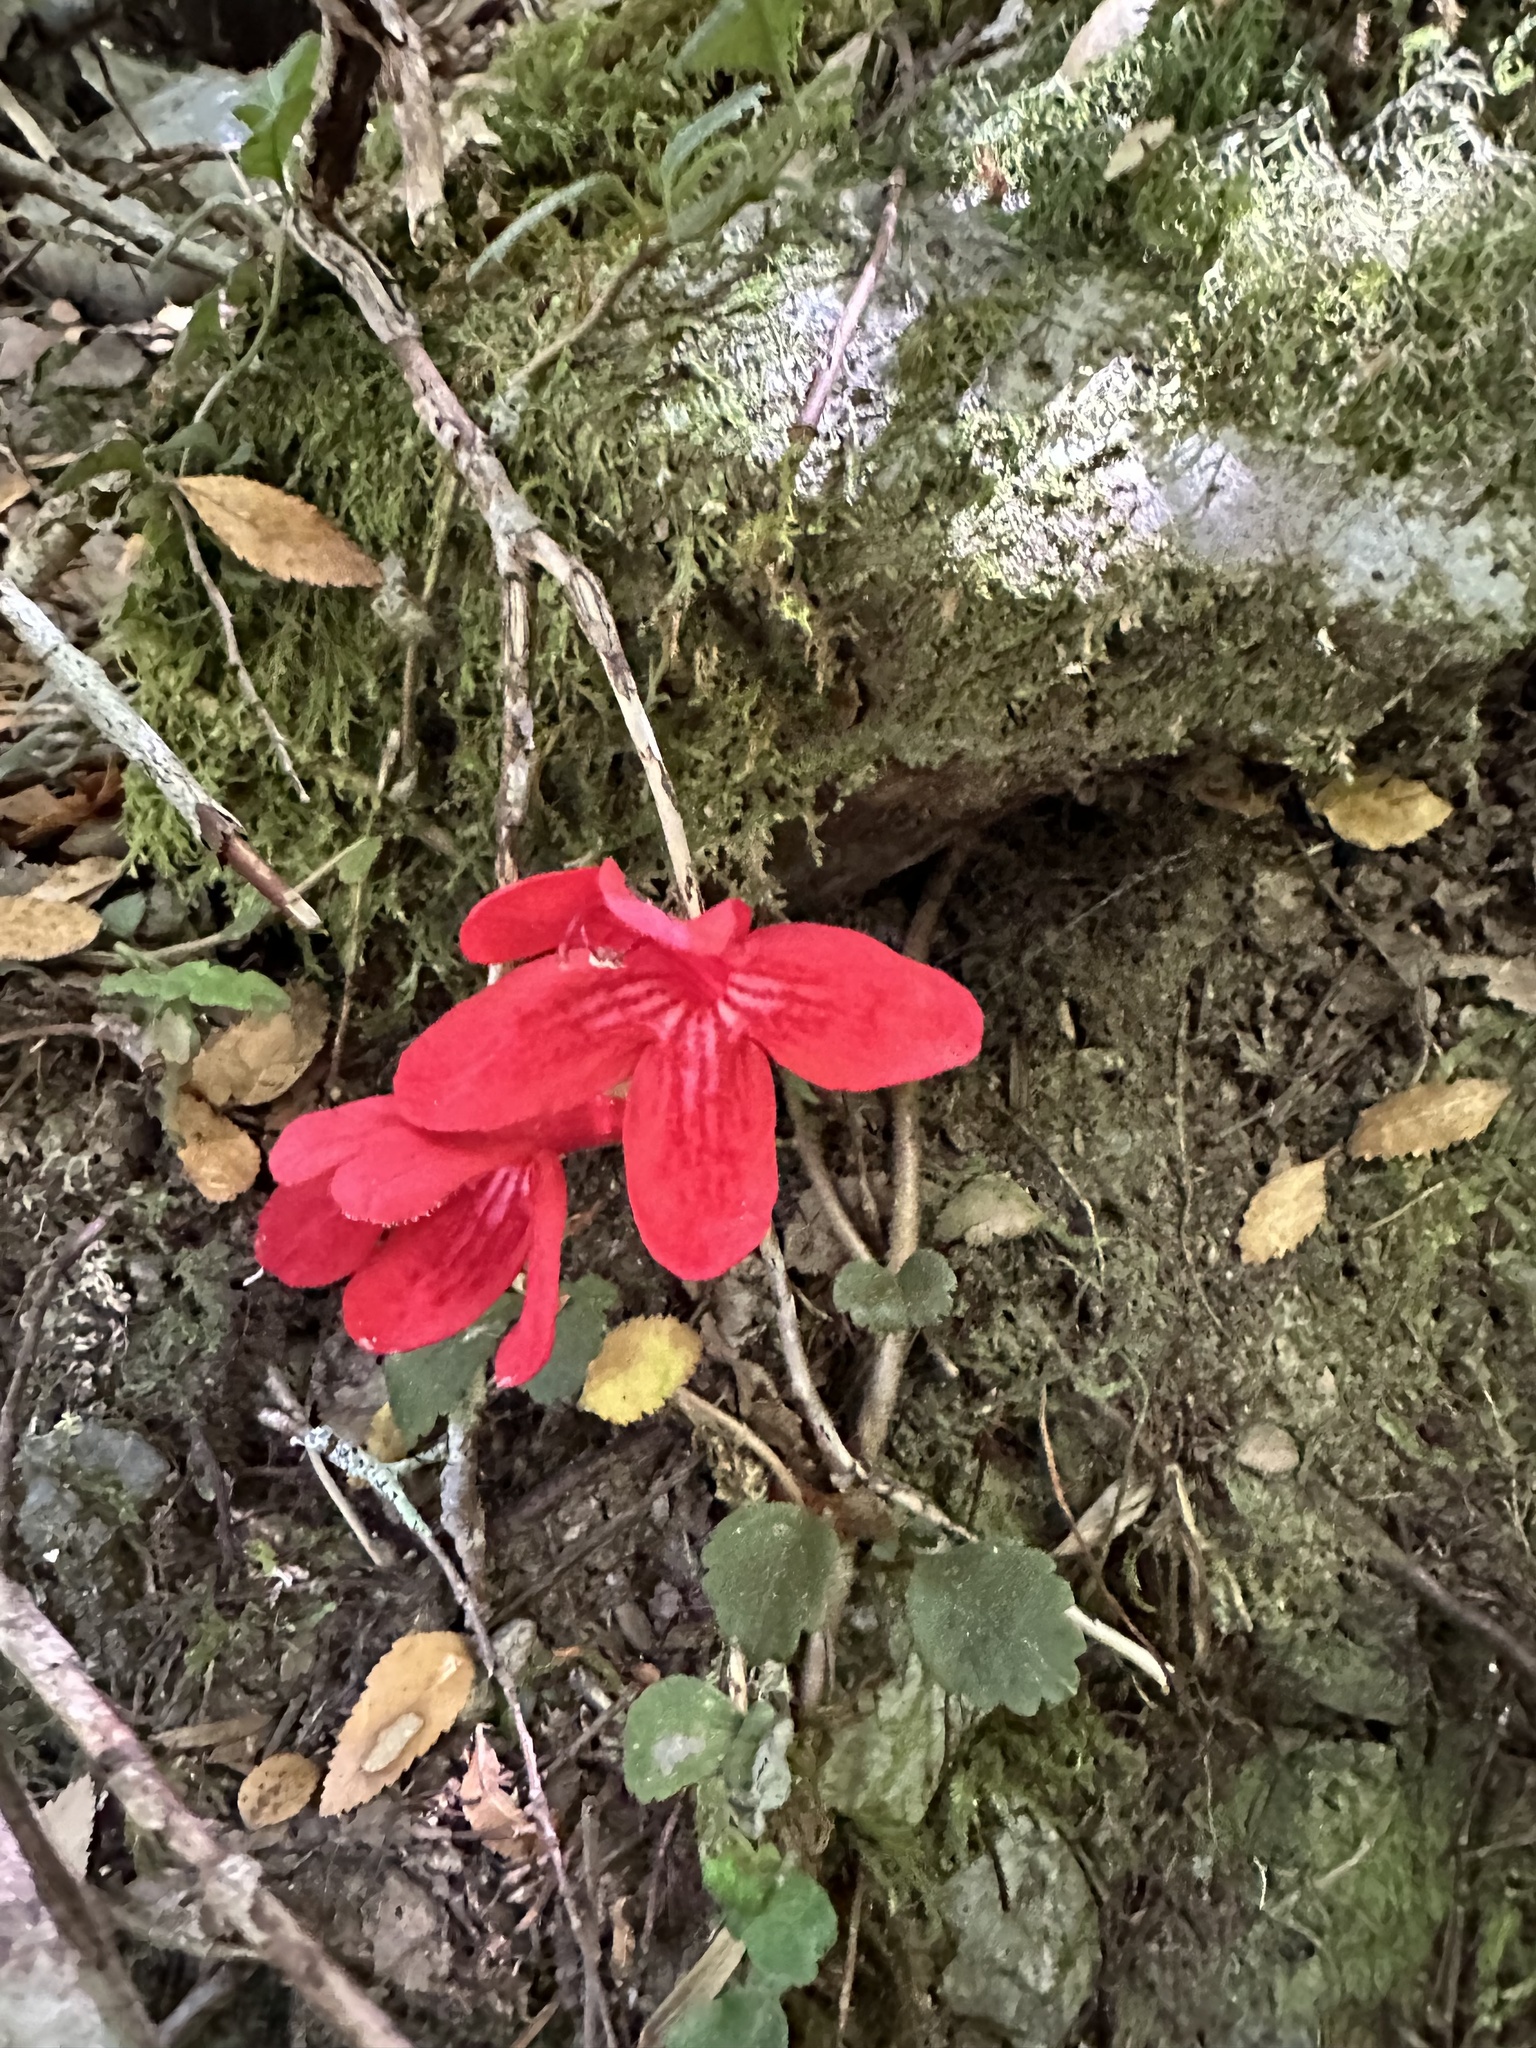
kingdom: Plantae
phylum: Tracheophyta
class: Magnoliopsida
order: Lamiales
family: Gesneriaceae
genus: Asteranthera
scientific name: Asteranthera ovata
